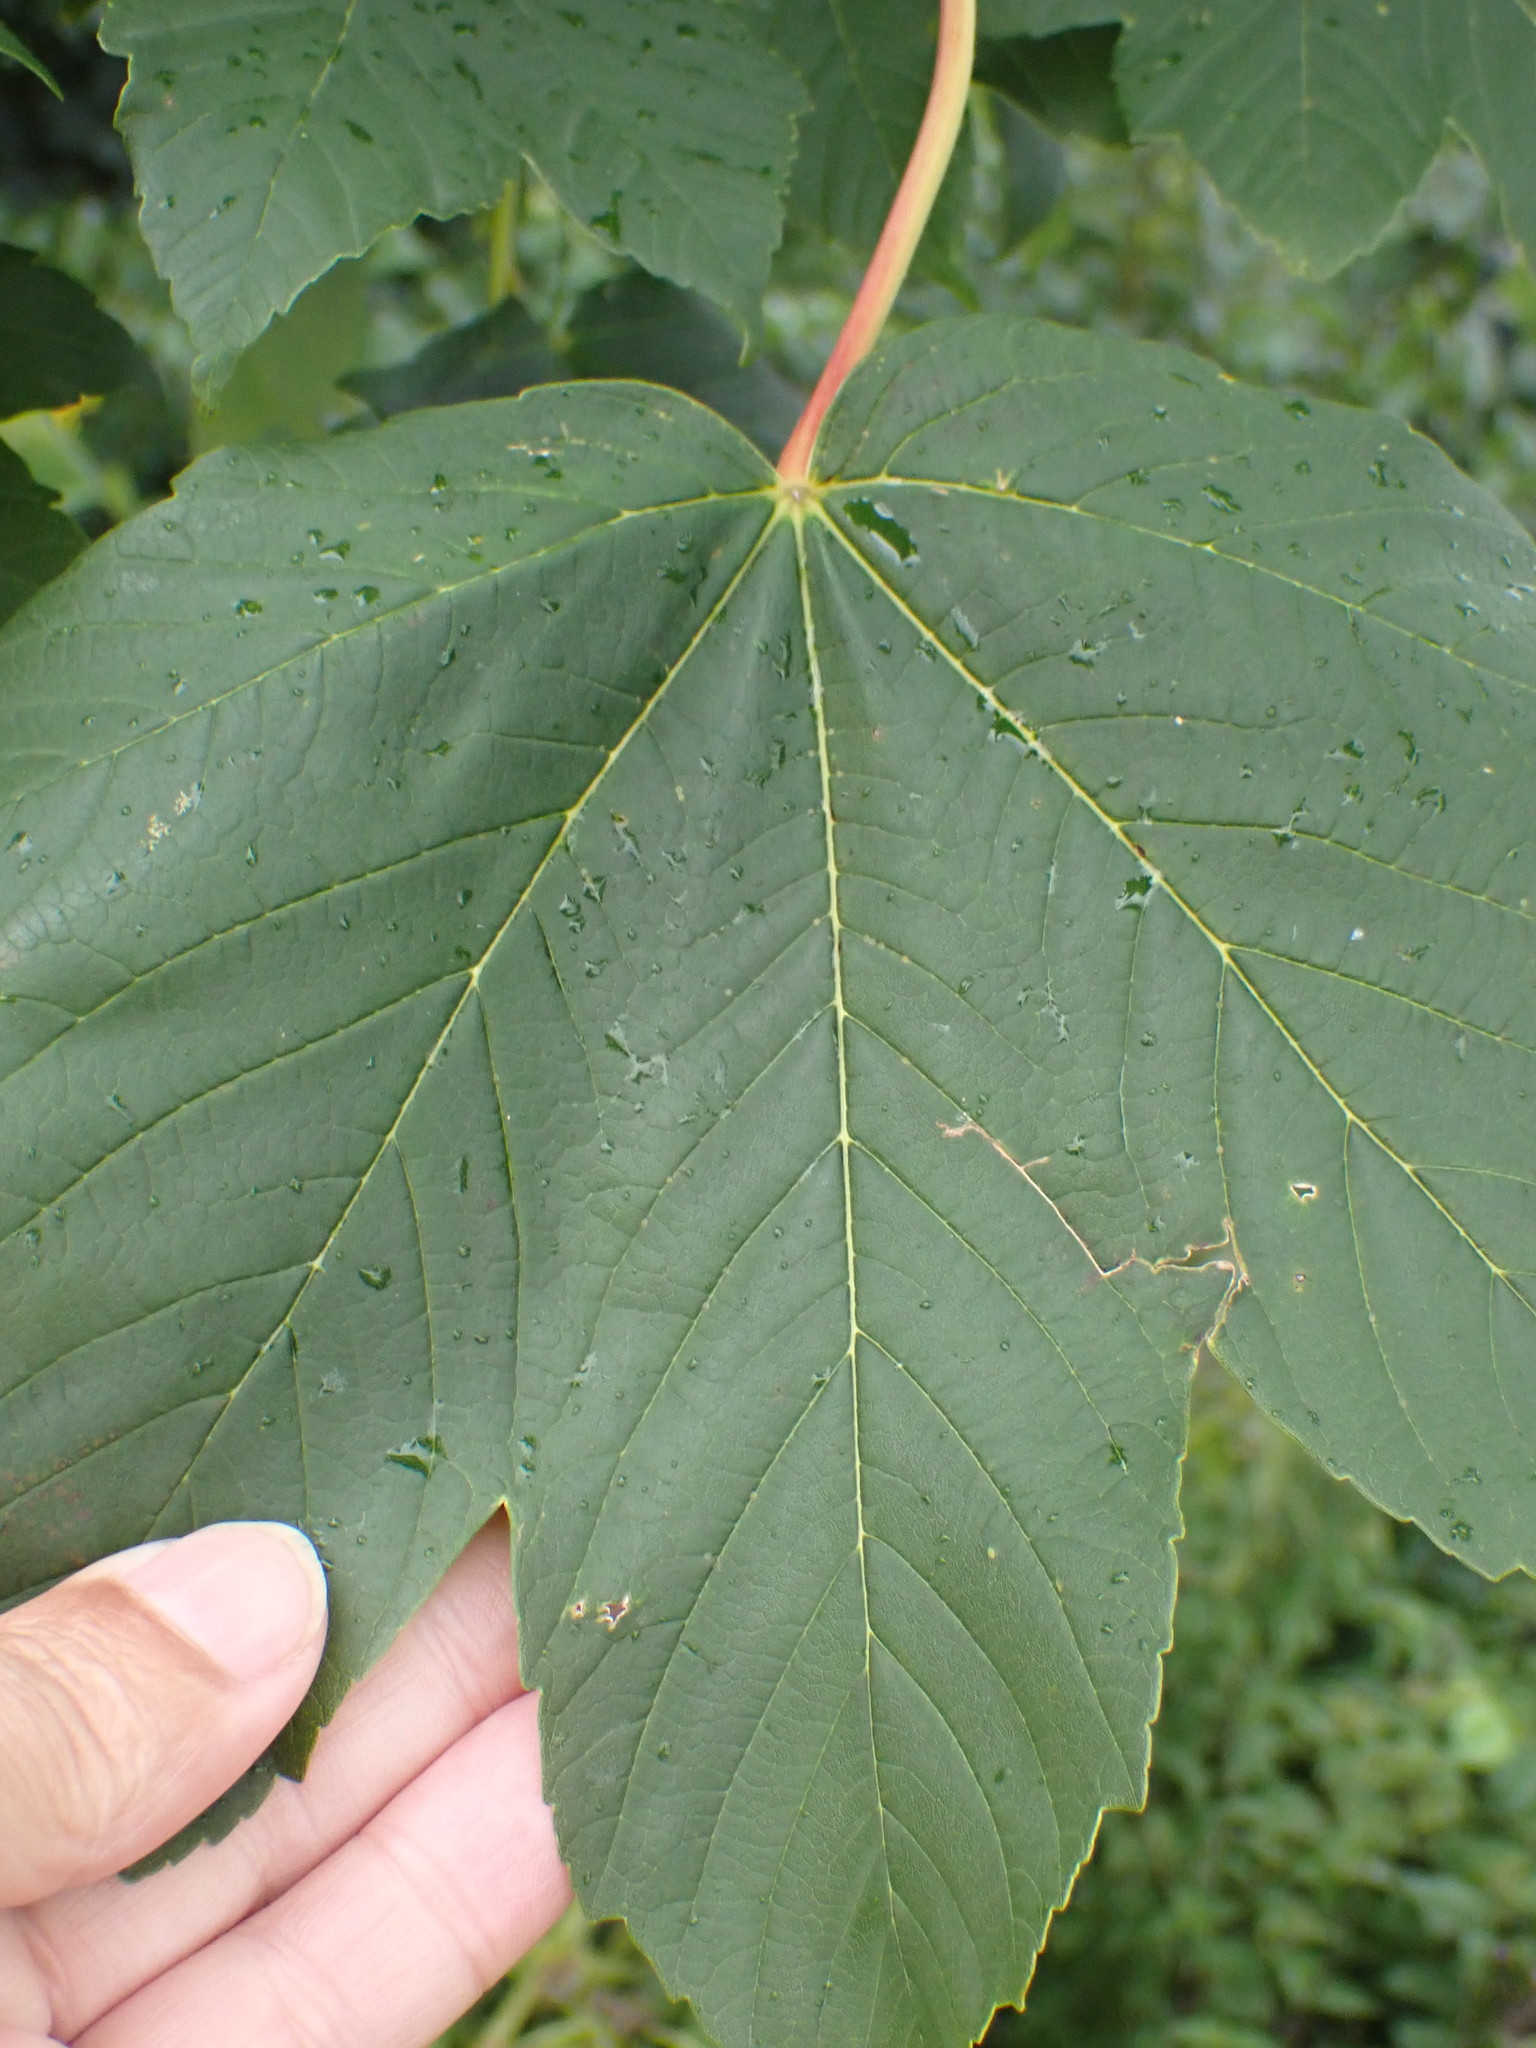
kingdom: Plantae
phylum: Tracheophyta
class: Magnoliopsida
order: Sapindales
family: Sapindaceae
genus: Acer
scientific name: Acer pseudoplatanus
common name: Sycamore
